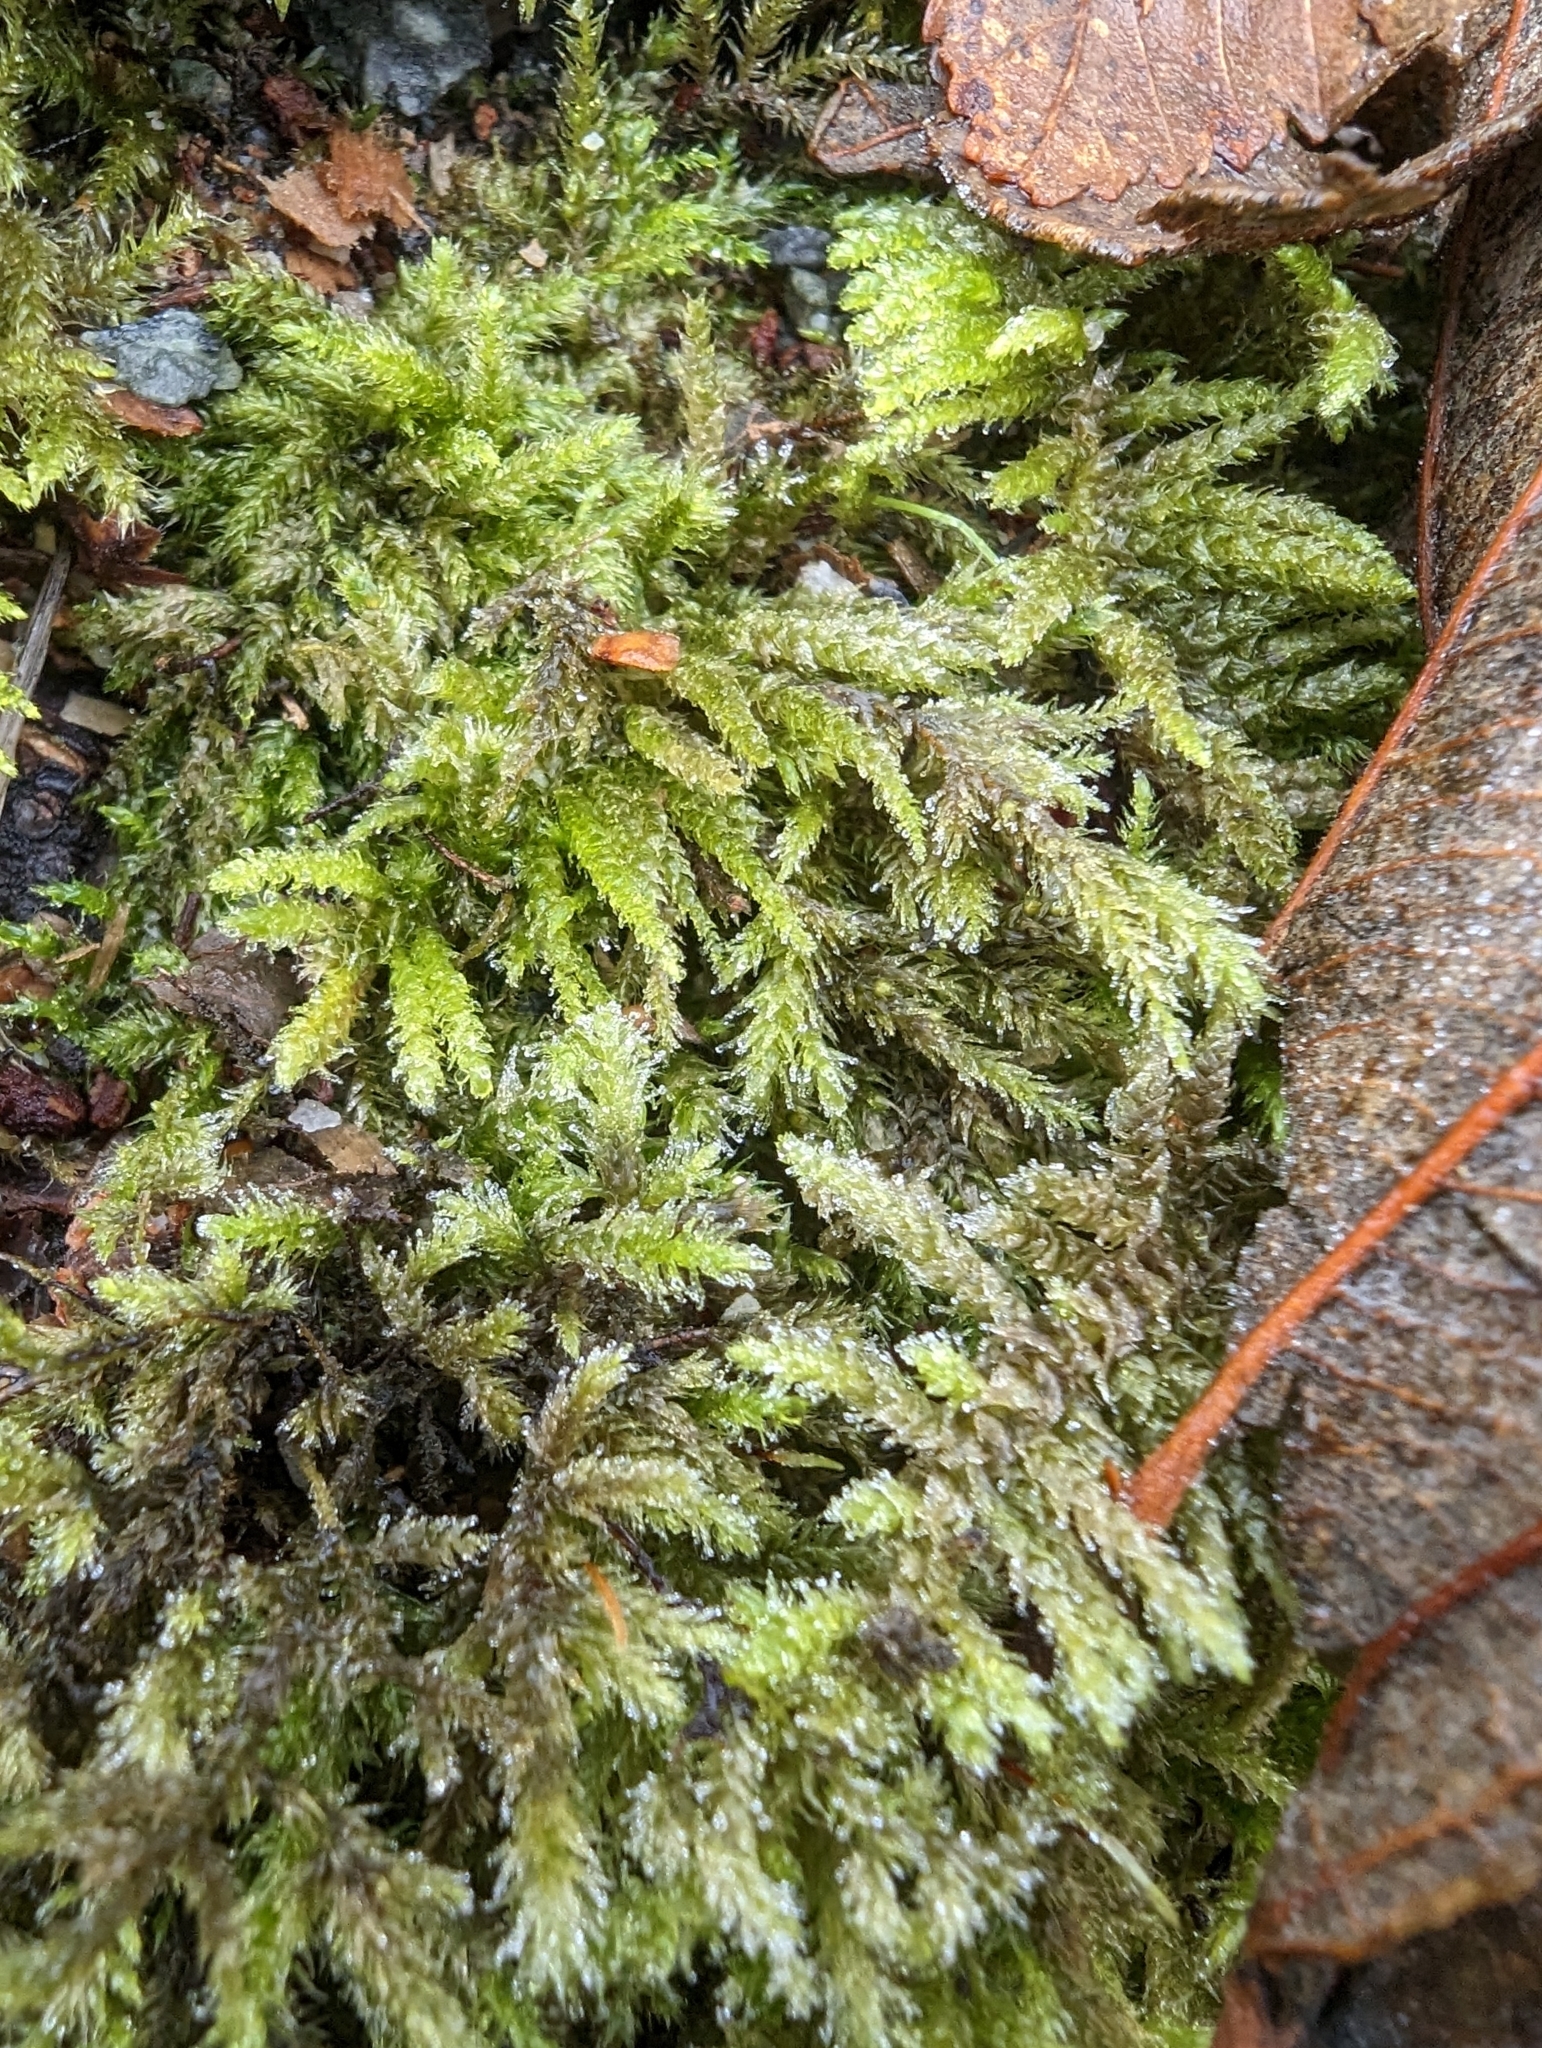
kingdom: Plantae
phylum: Bryophyta
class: Bryopsida
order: Hypnales
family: Brachytheciaceae
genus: Kindbergia
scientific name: Kindbergia oregana
